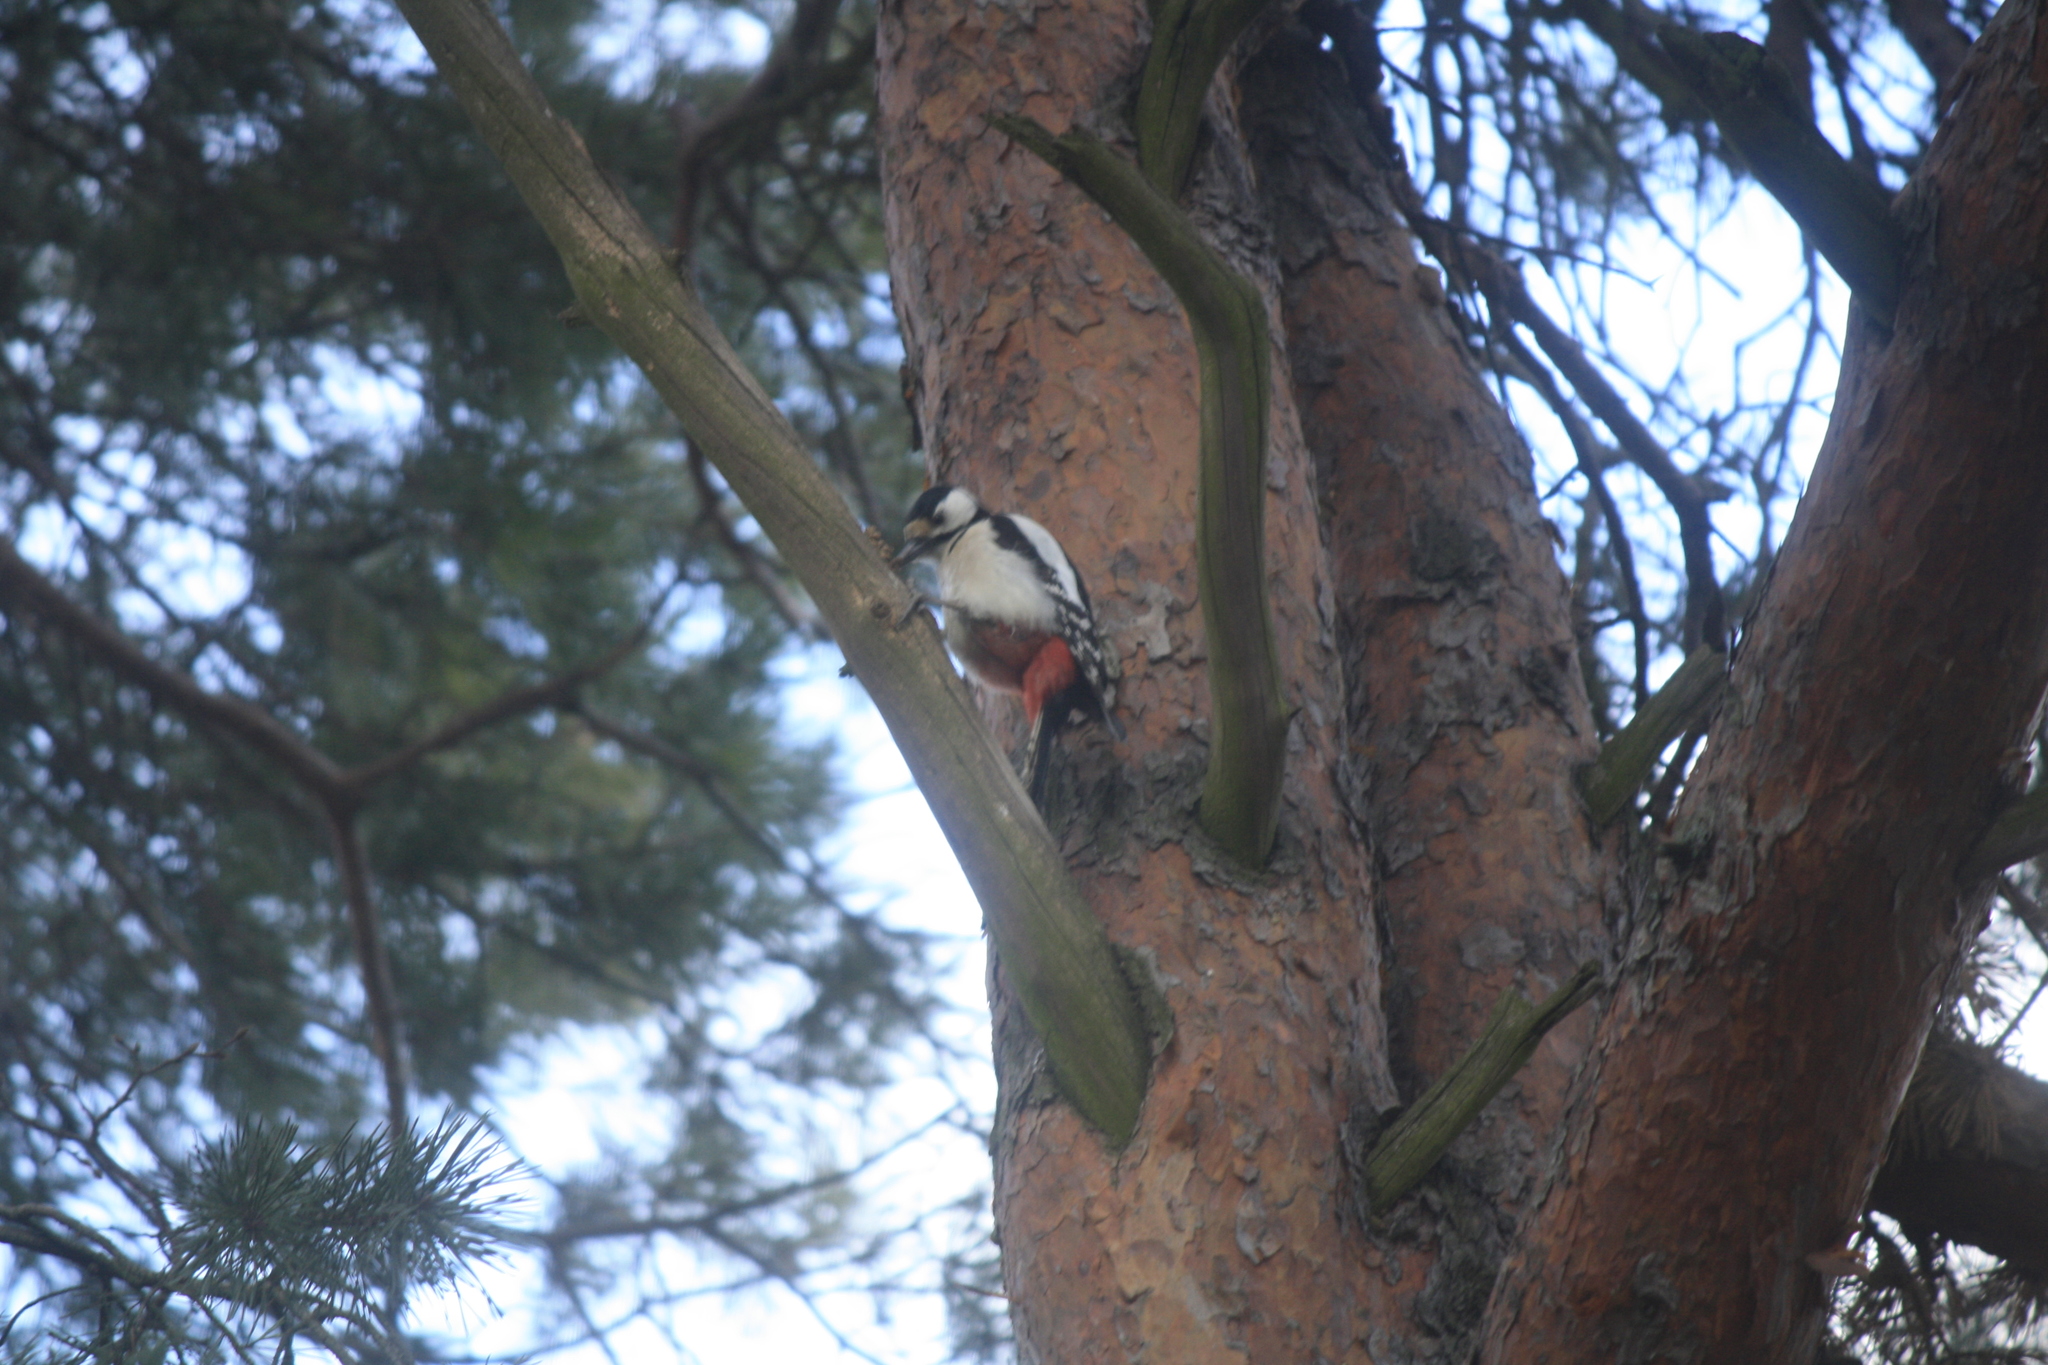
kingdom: Animalia
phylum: Chordata
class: Aves
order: Piciformes
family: Picidae
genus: Dendrocopos
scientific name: Dendrocopos major
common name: Great spotted woodpecker
